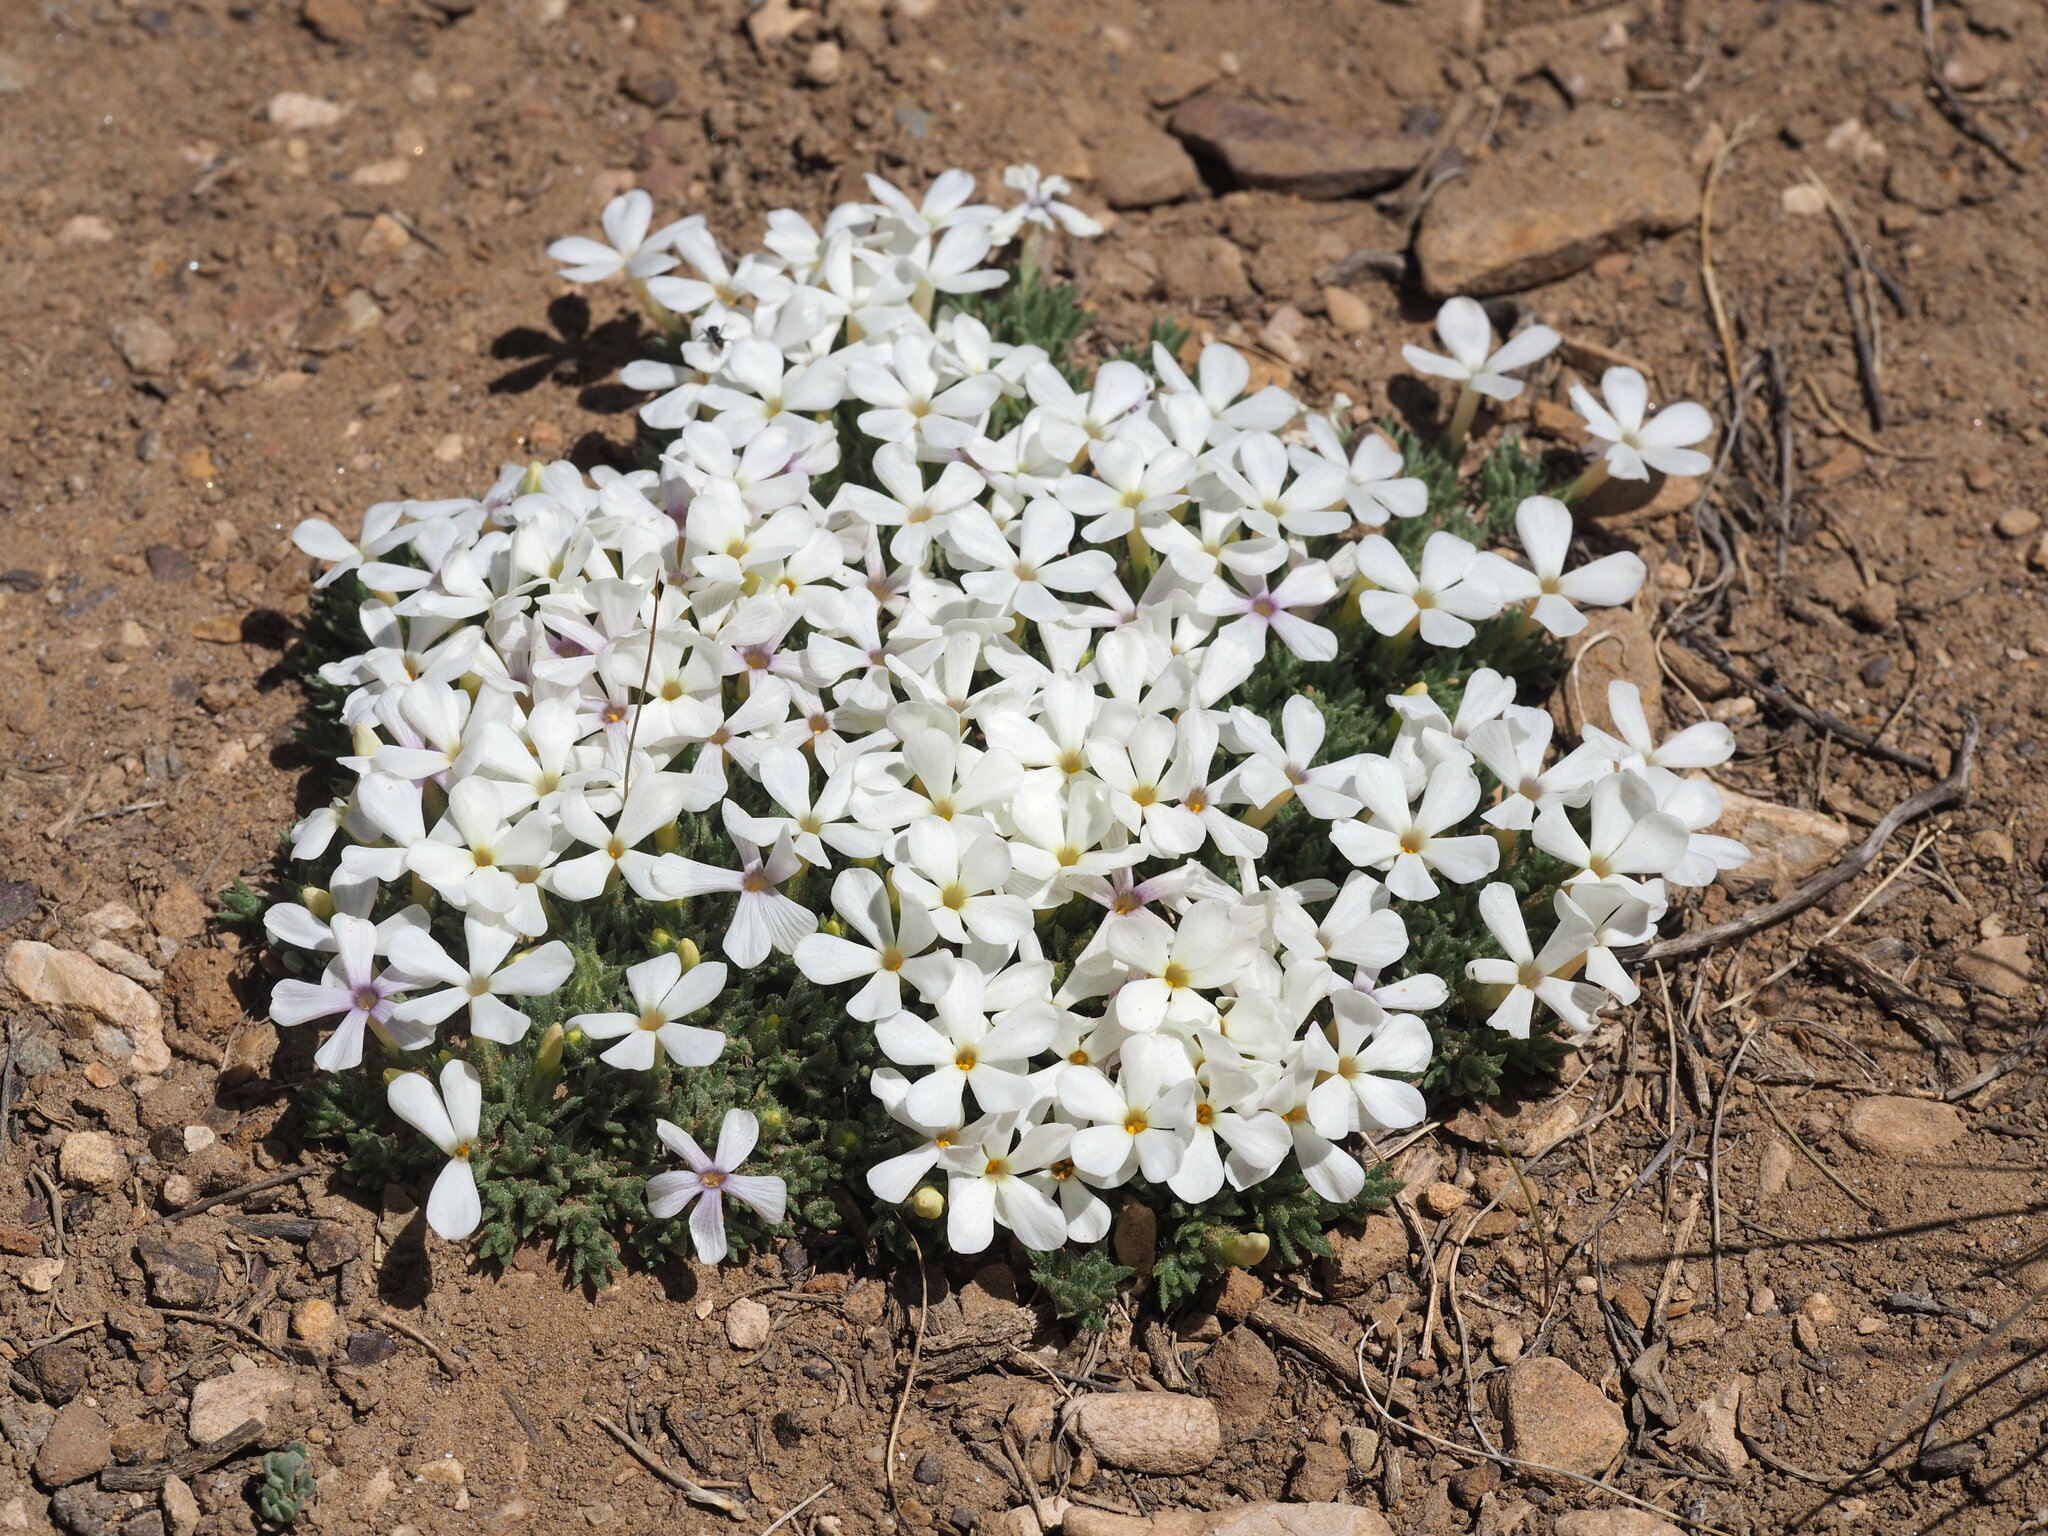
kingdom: Plantae
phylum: Tracheophyta
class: Magnoliopsida
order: Ericales
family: Polemoniaceae
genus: Phlox
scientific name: Phlox condensata
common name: Compact phlox
